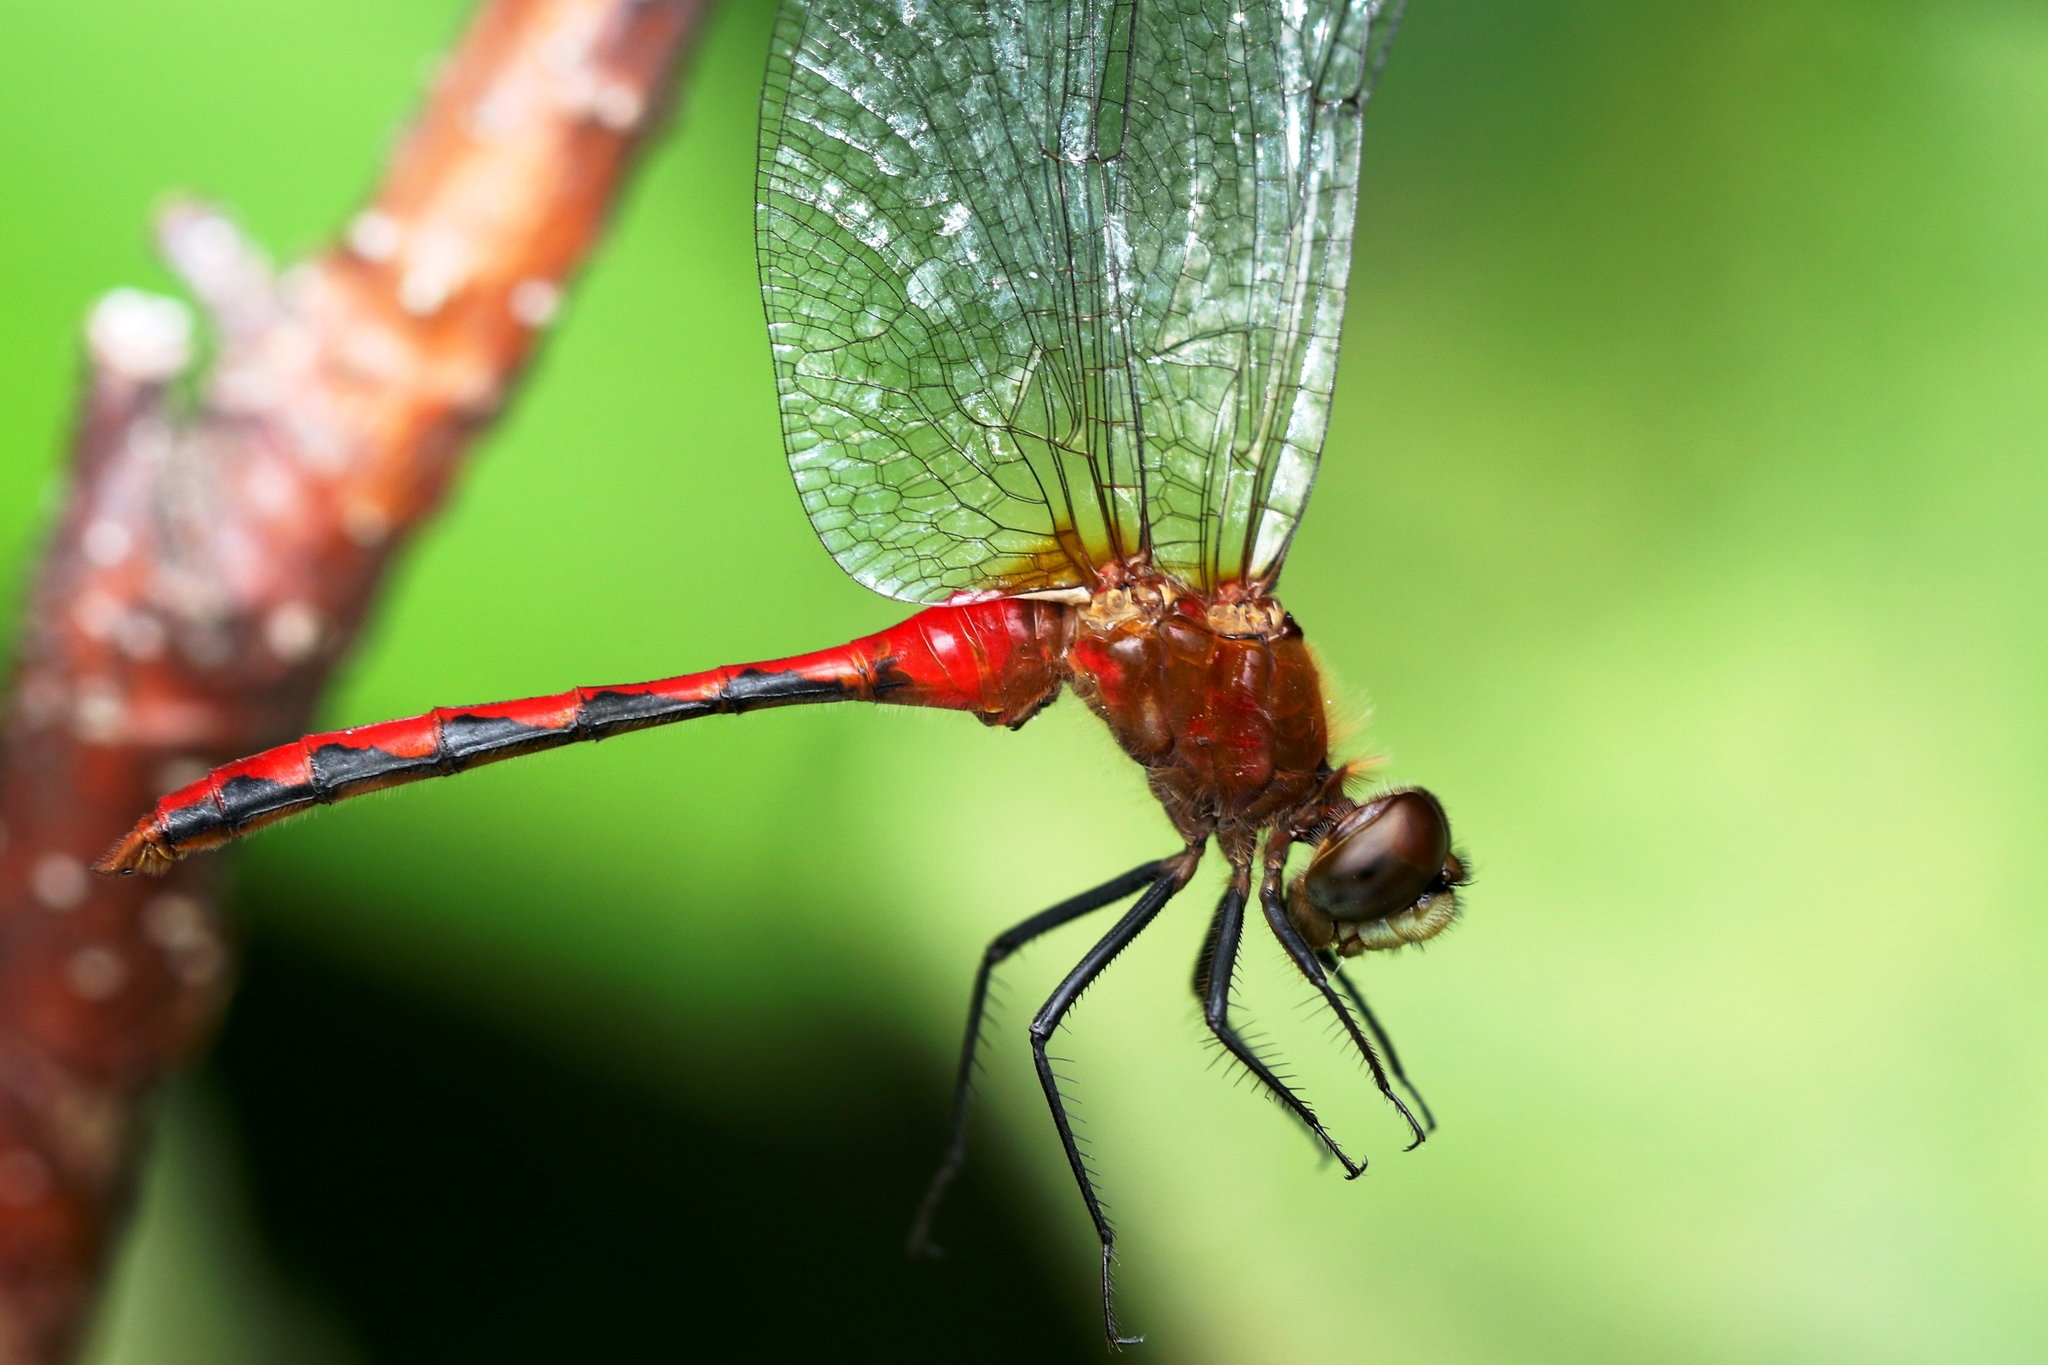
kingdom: Animalia
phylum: Arthropoda
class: Insecta
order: Odonata
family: Libellulidae
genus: Sympetrum
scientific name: Sympetrum obtrusum
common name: White-faced meadowhawk
